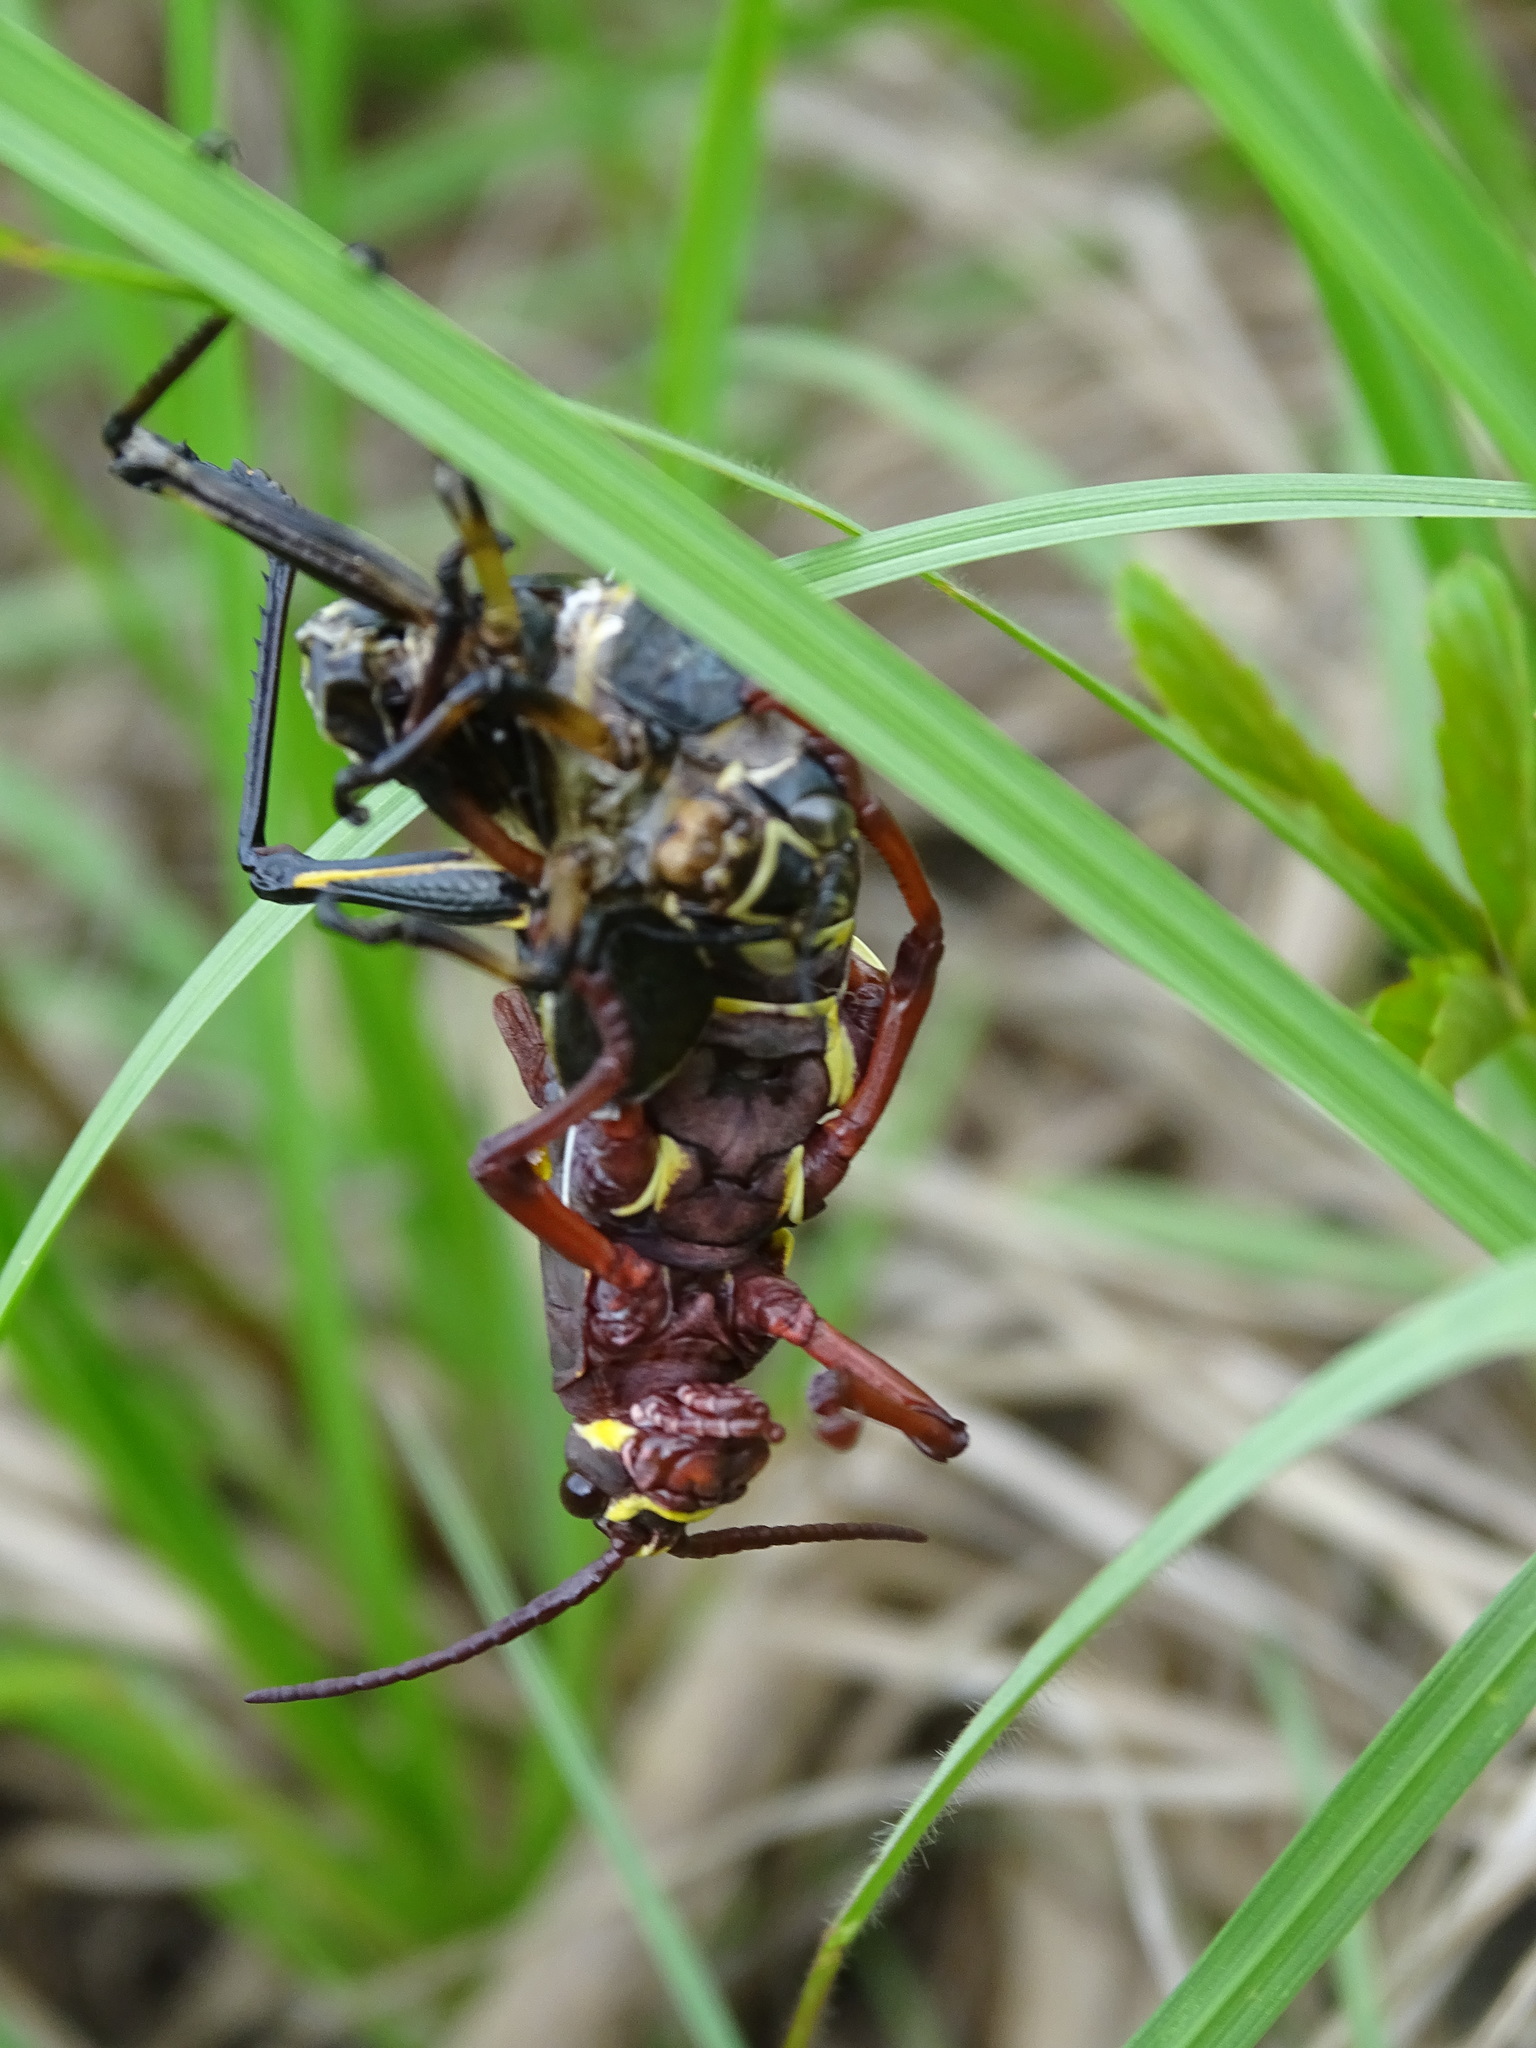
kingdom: Animalia
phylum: Arthropoda
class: Insecta
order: Orthoptera
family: Romaleidae
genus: Romalea
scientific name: Romalea microptera
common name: Eastern lubber grasshopper
